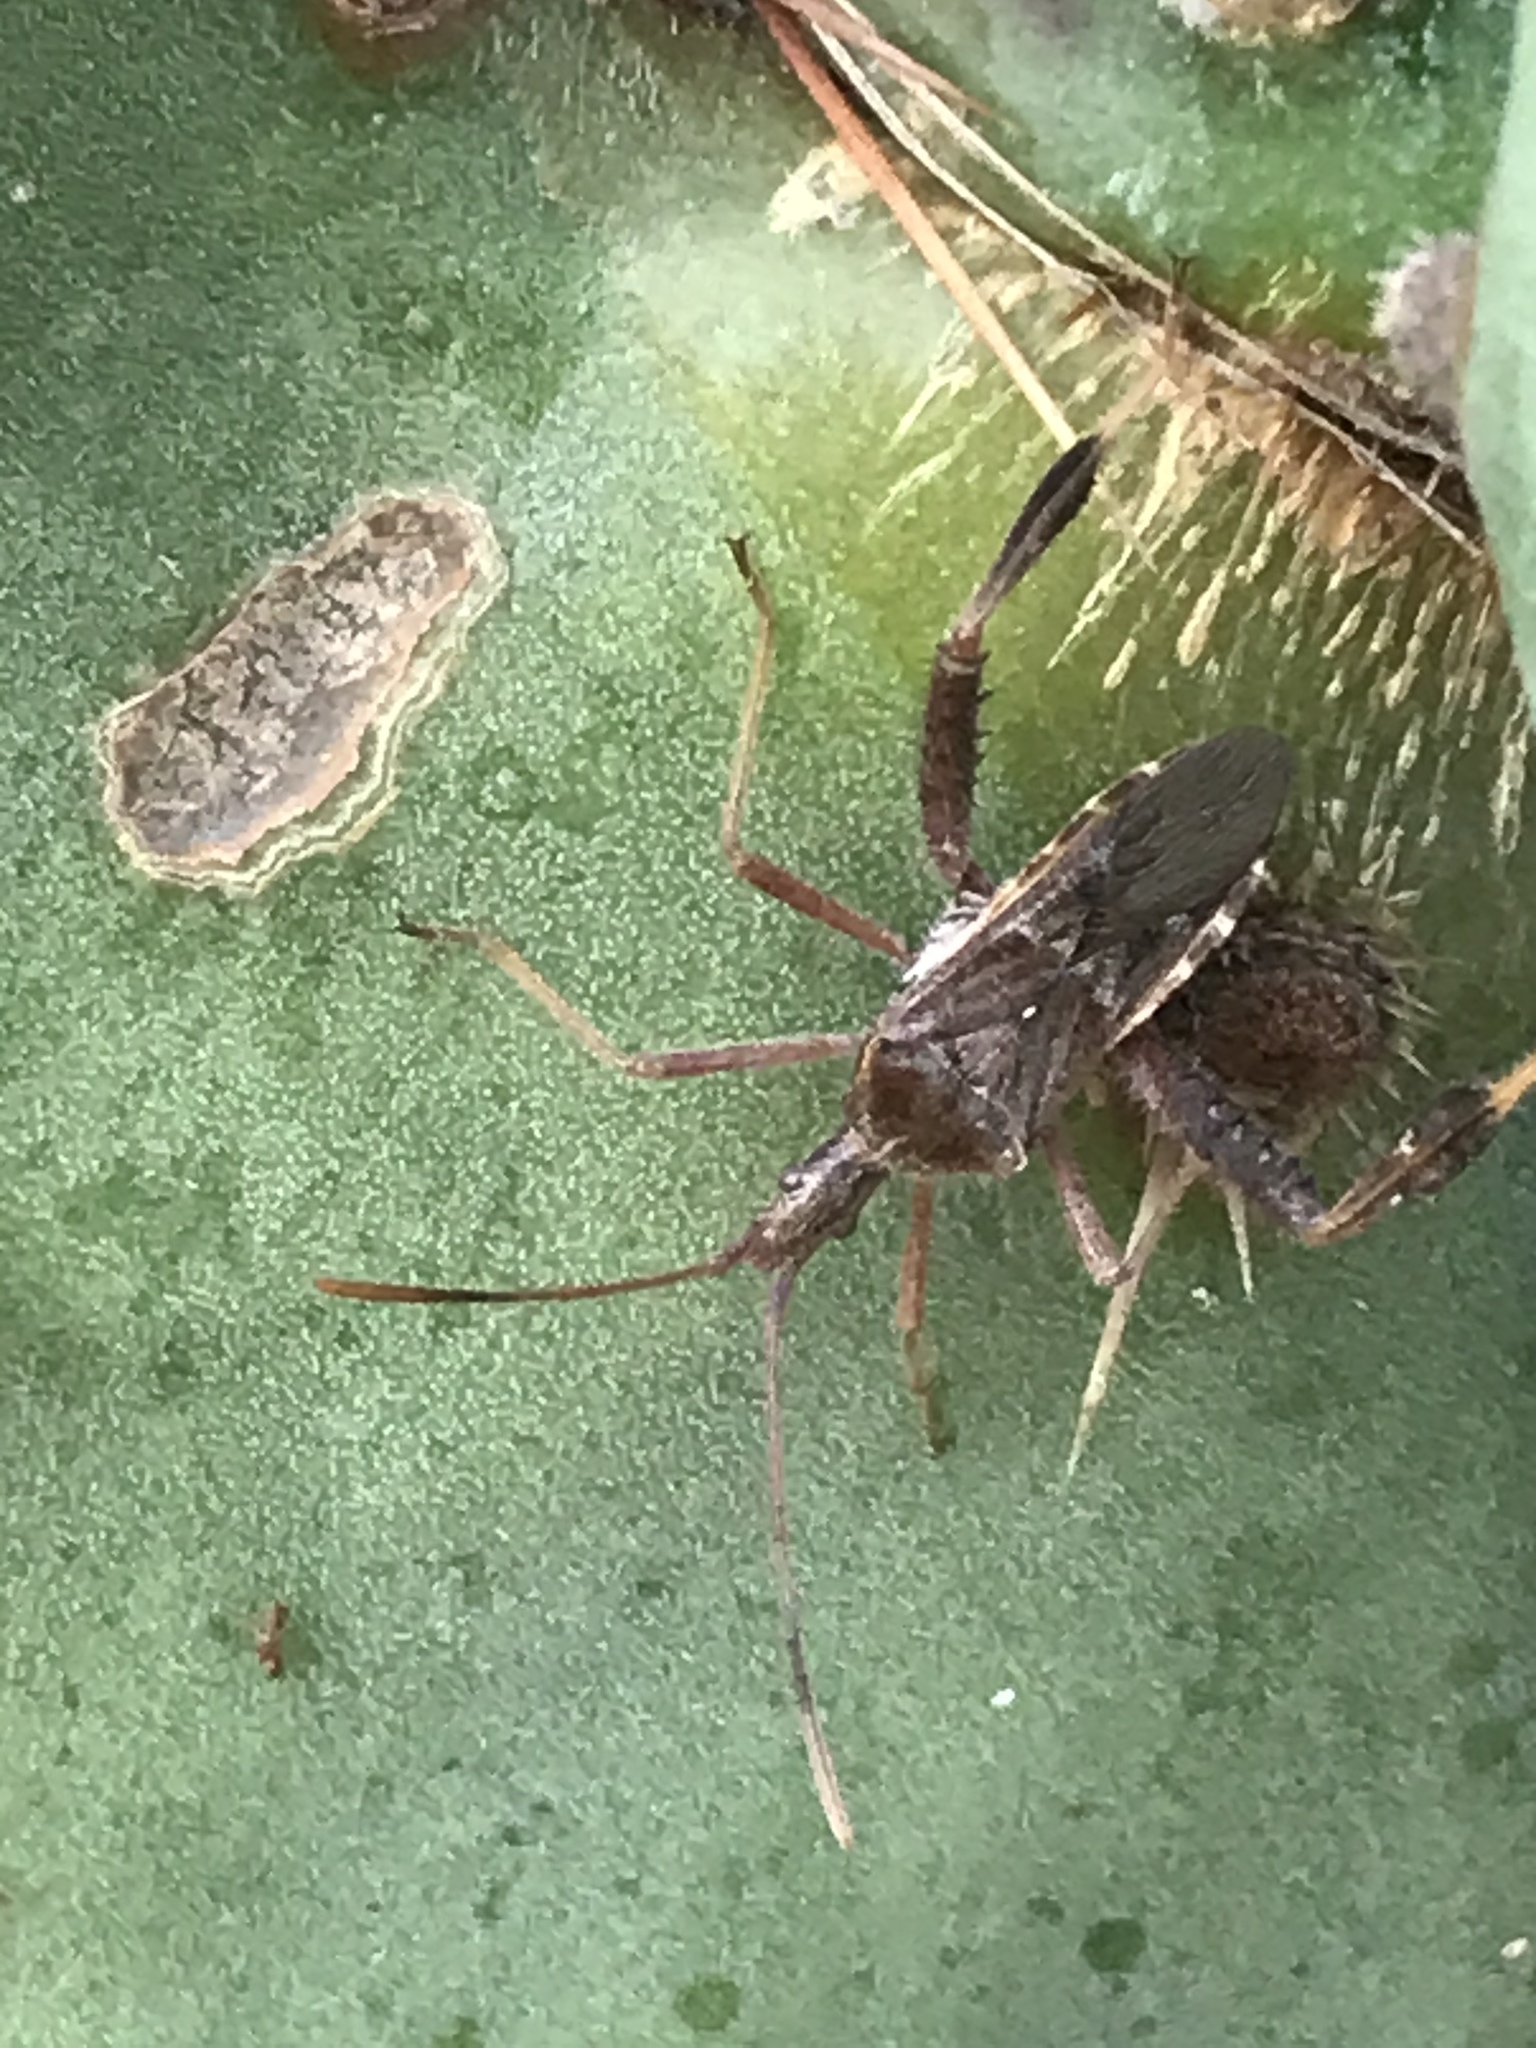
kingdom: Animalia
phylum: Arthropoda
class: Insecta
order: Hemiptera
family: Coreidae
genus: Narnia
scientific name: Narnia femorata
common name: Leaf-footed cactus bug
